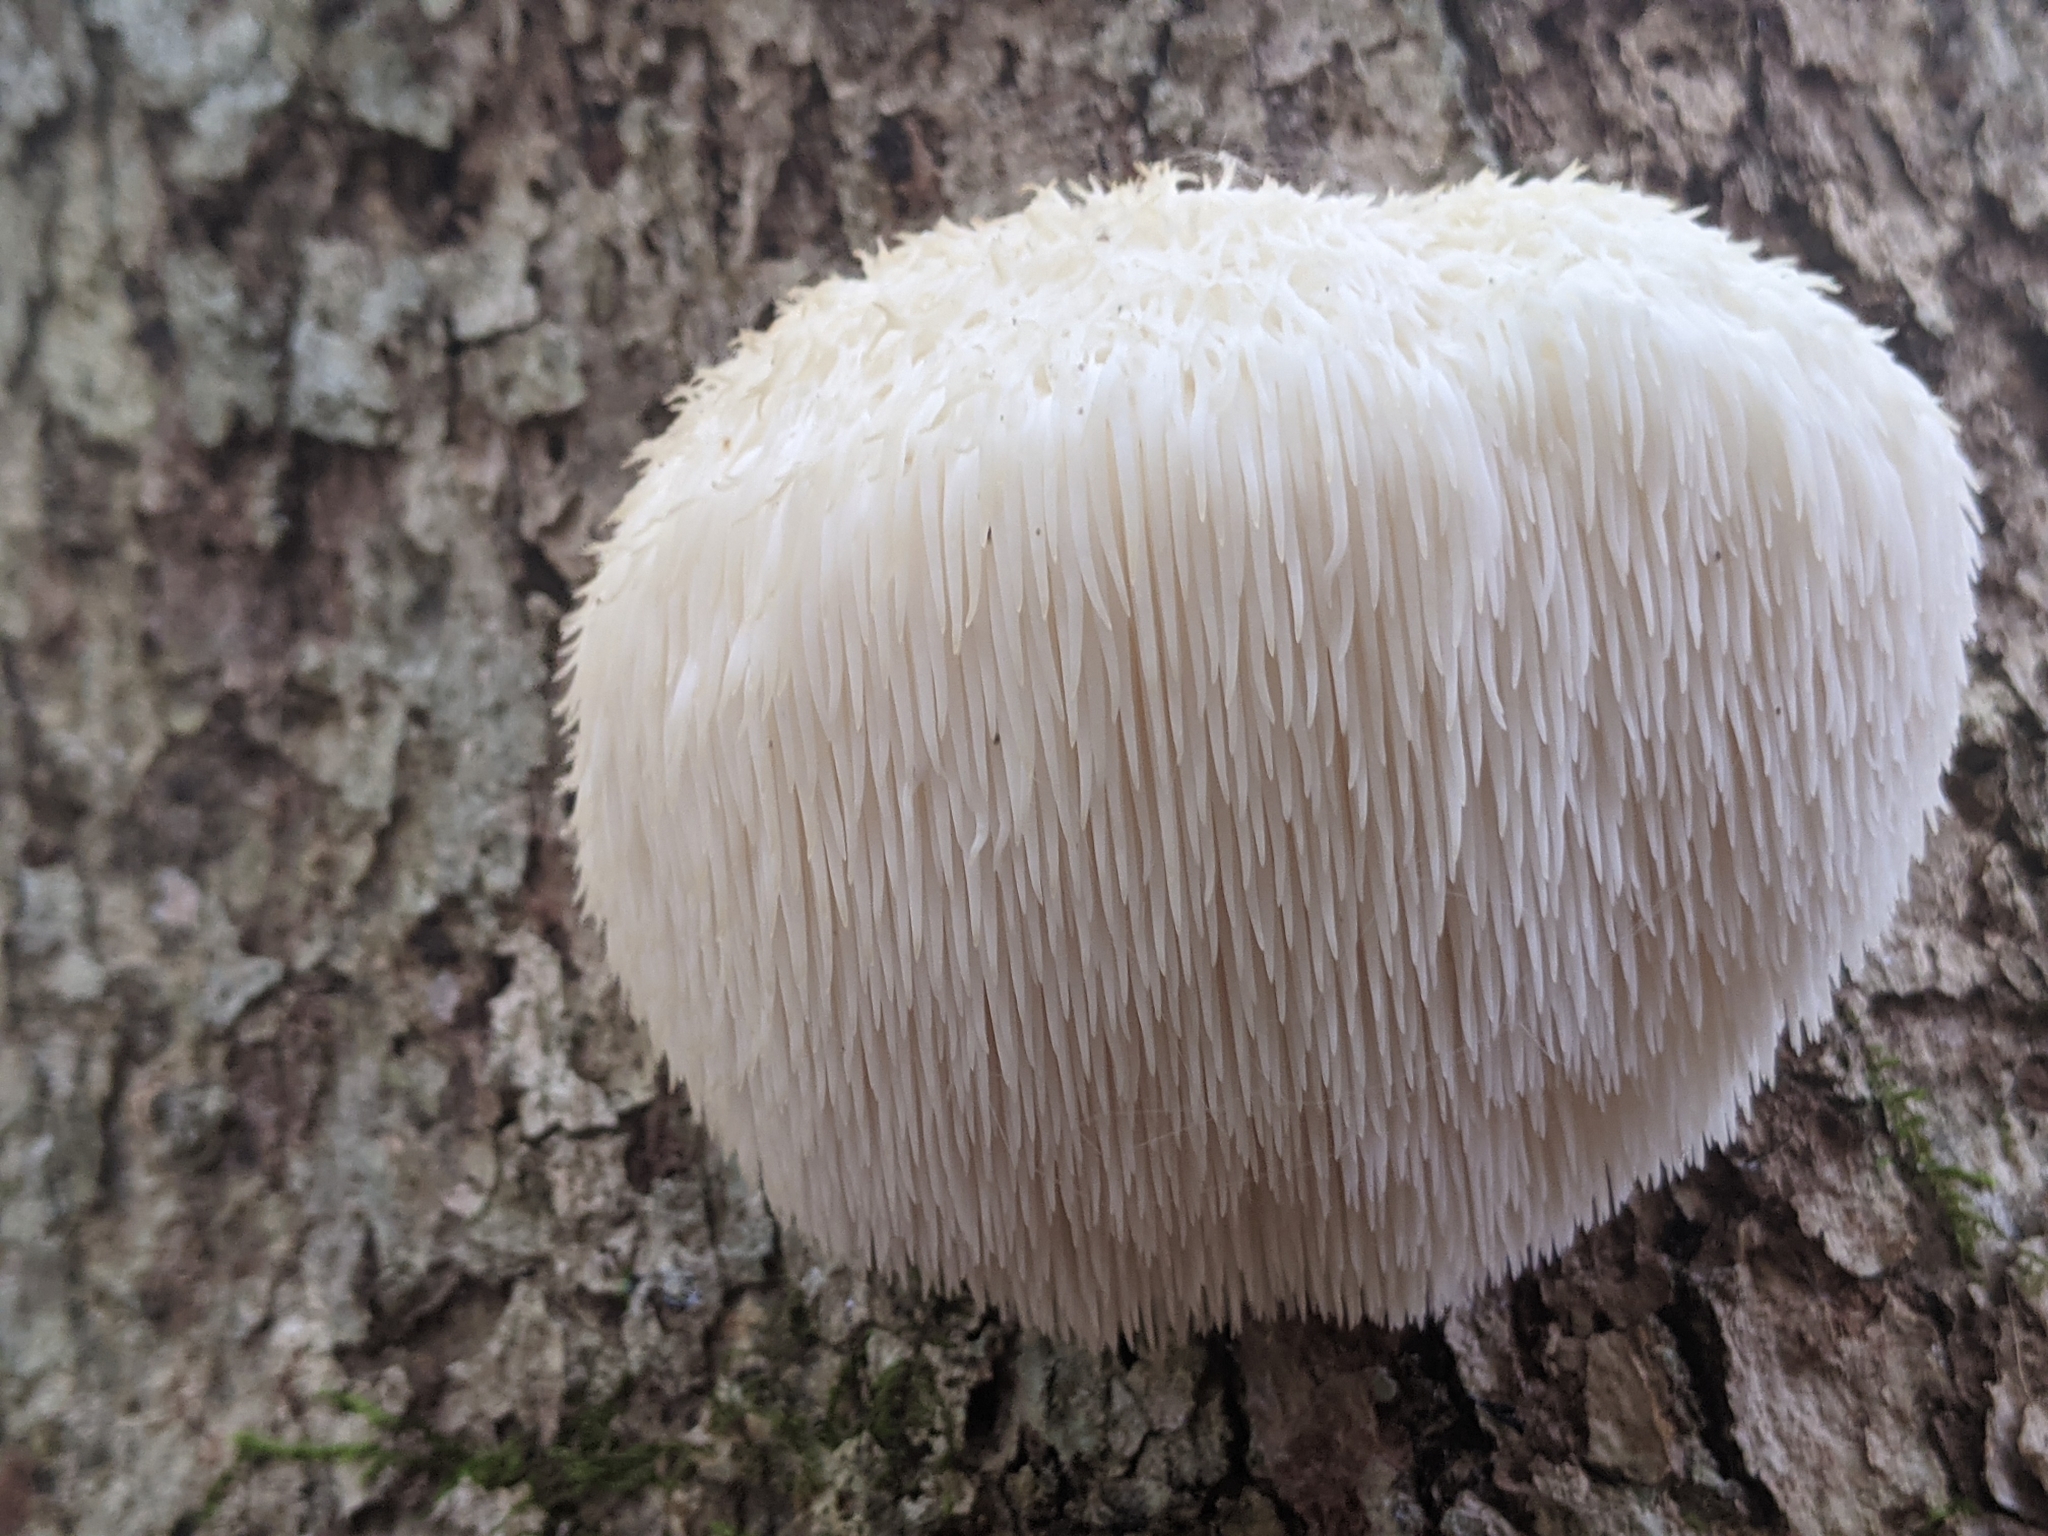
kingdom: Fungi
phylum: Basidiomycota
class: Agaricomycetes
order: Russulales
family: Hericiaceae
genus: Hericium
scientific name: Hericium erinaceus
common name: Bearded tooth
